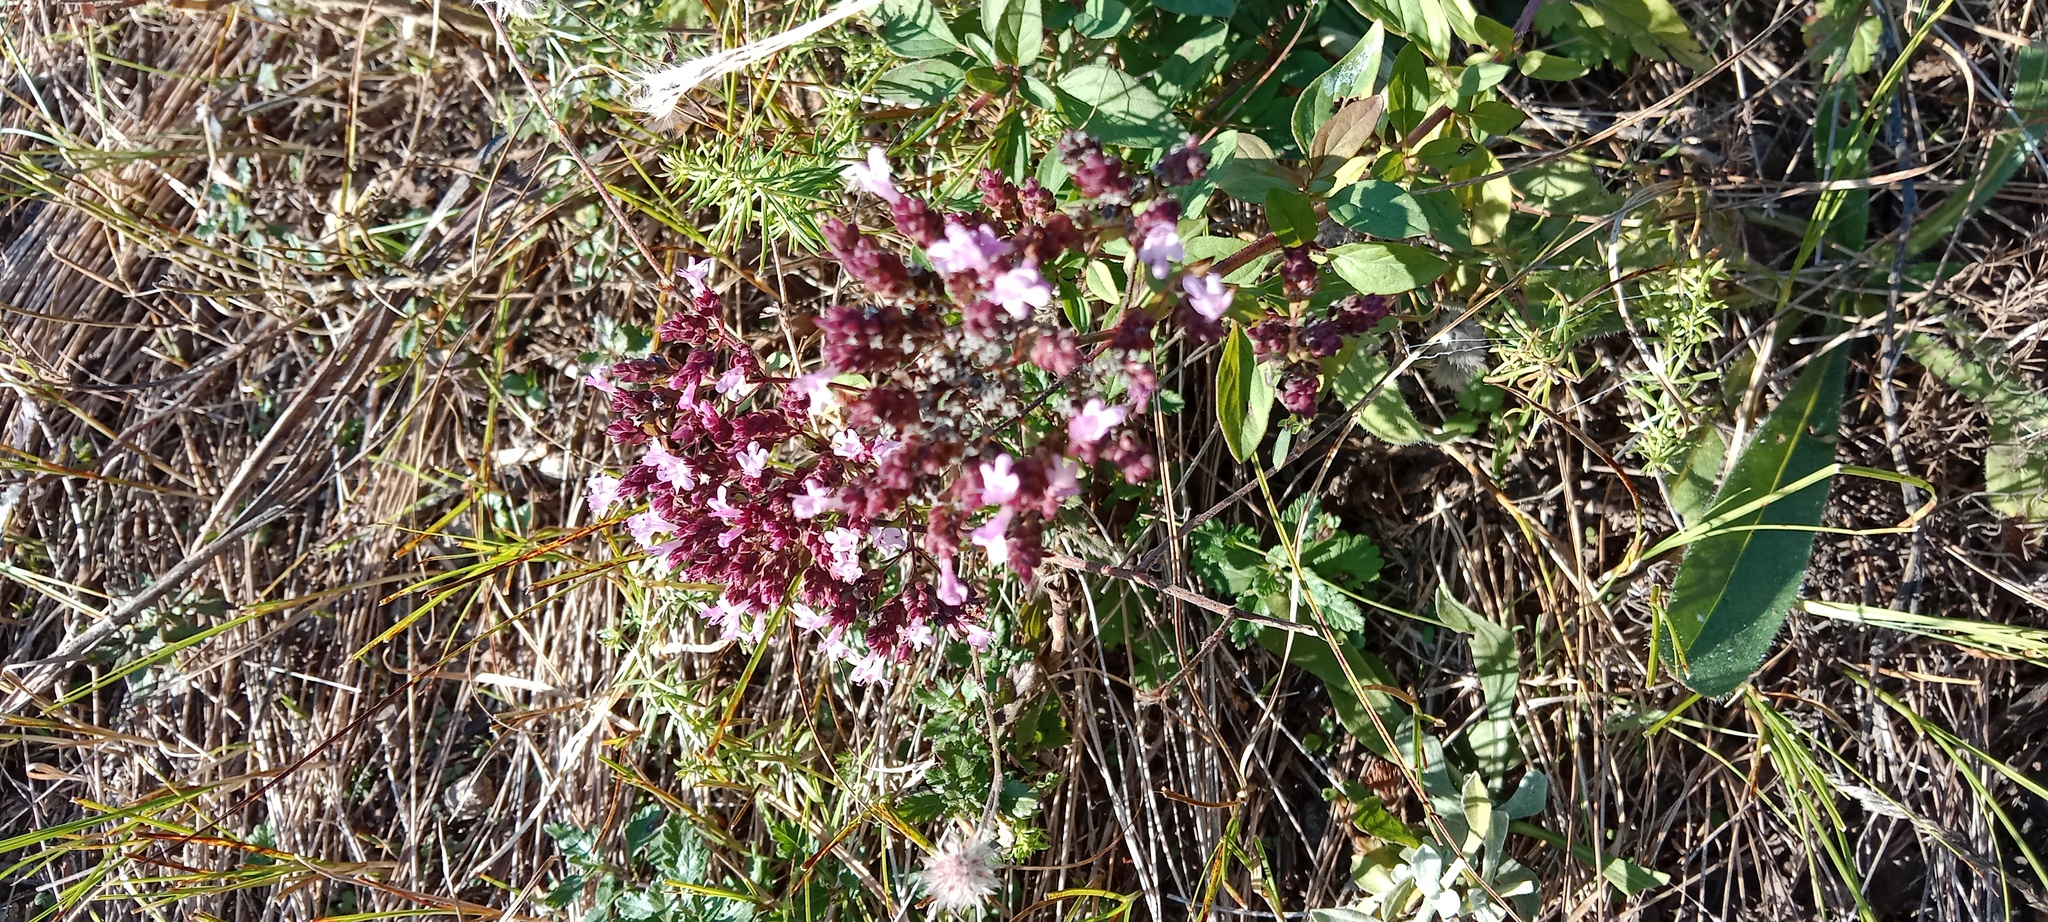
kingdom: Plantae
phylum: Tracheophyta
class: Magnoliopsida
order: Lamiales
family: Lamiaceae
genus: Origanum
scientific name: Origanum vulgare
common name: Wild marjoram
